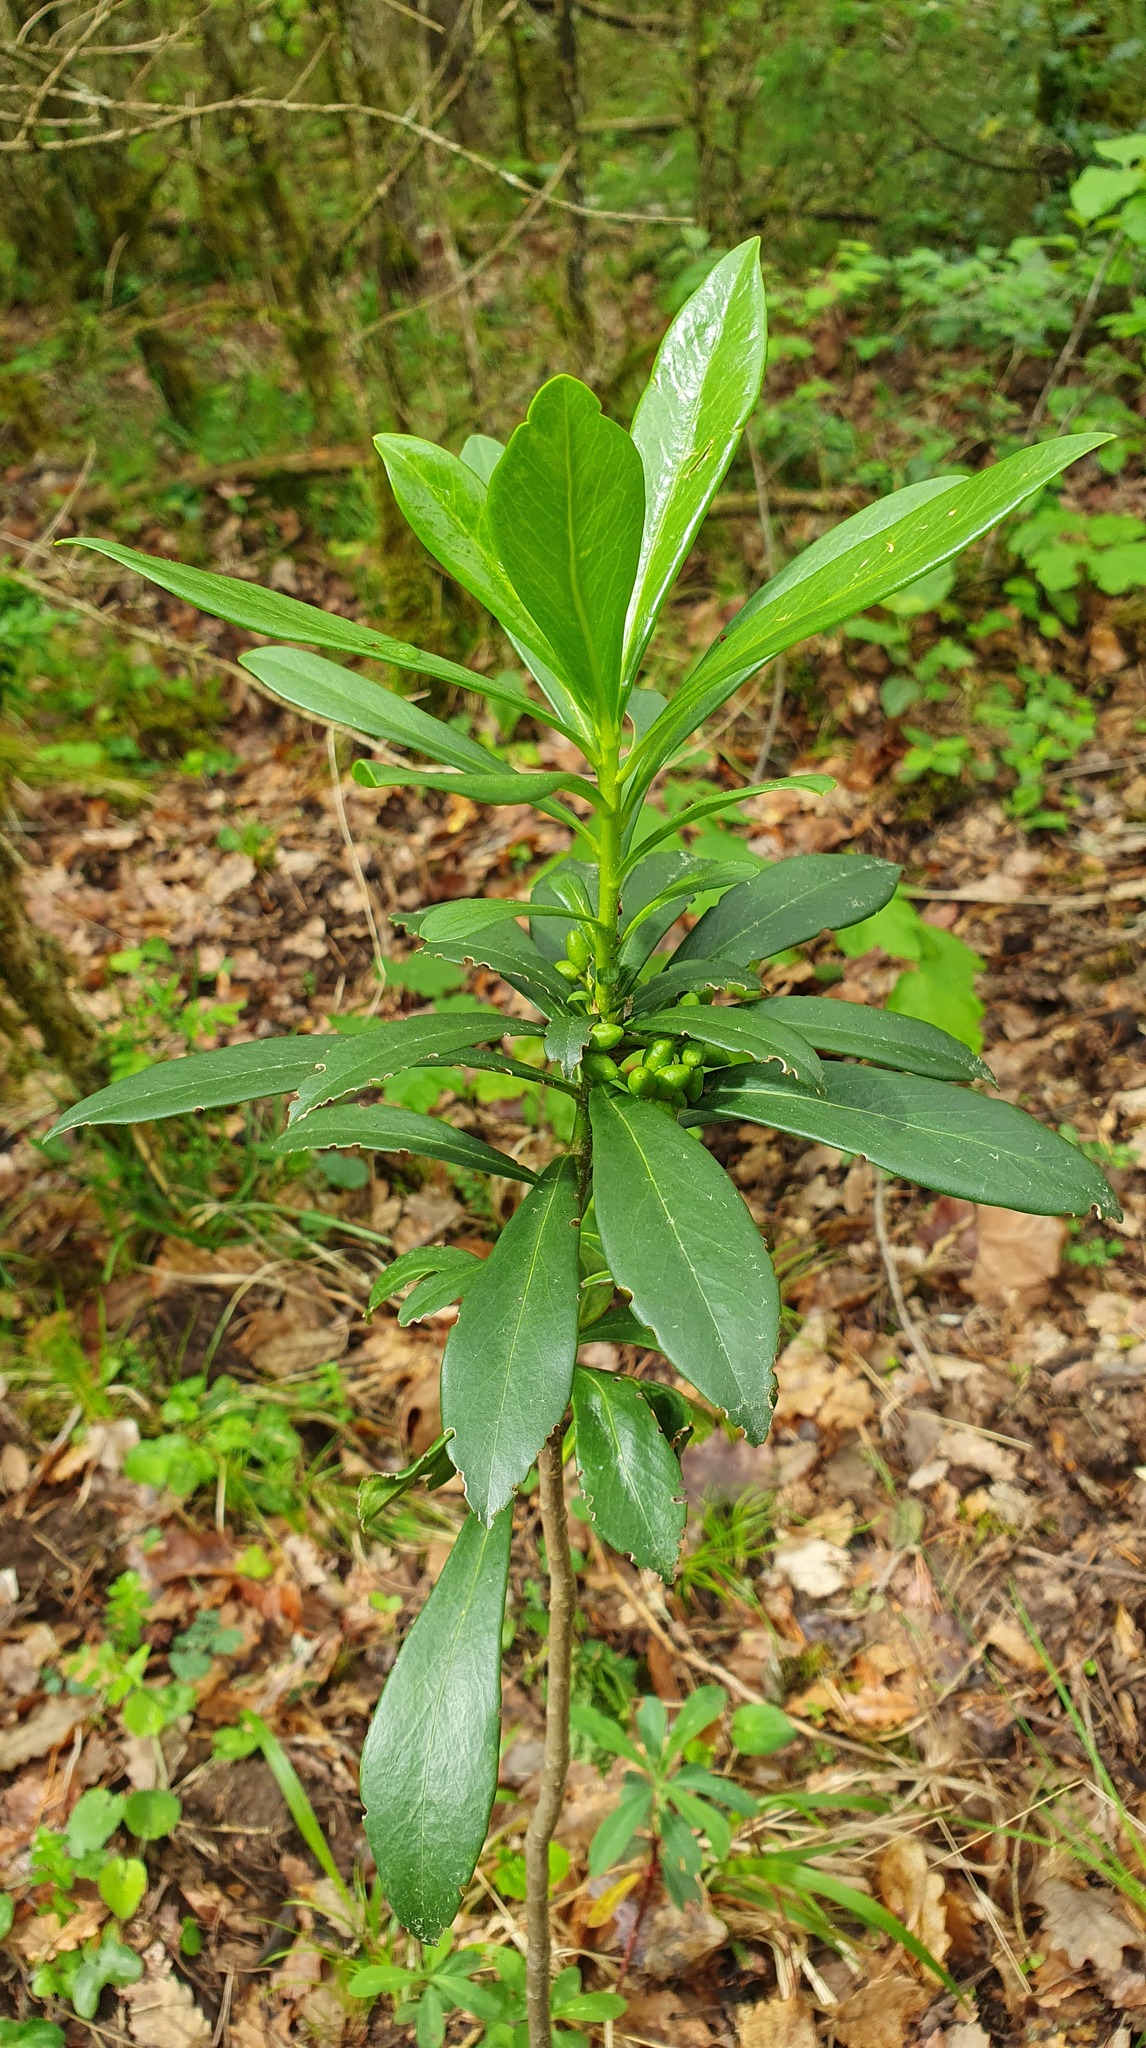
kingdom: Plantae
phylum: Tracheophyta
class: Magnoliopsida
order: Malvales
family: Thymelaeaceae
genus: Daphne
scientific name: Daphne laureola
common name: Spurge-laurel
